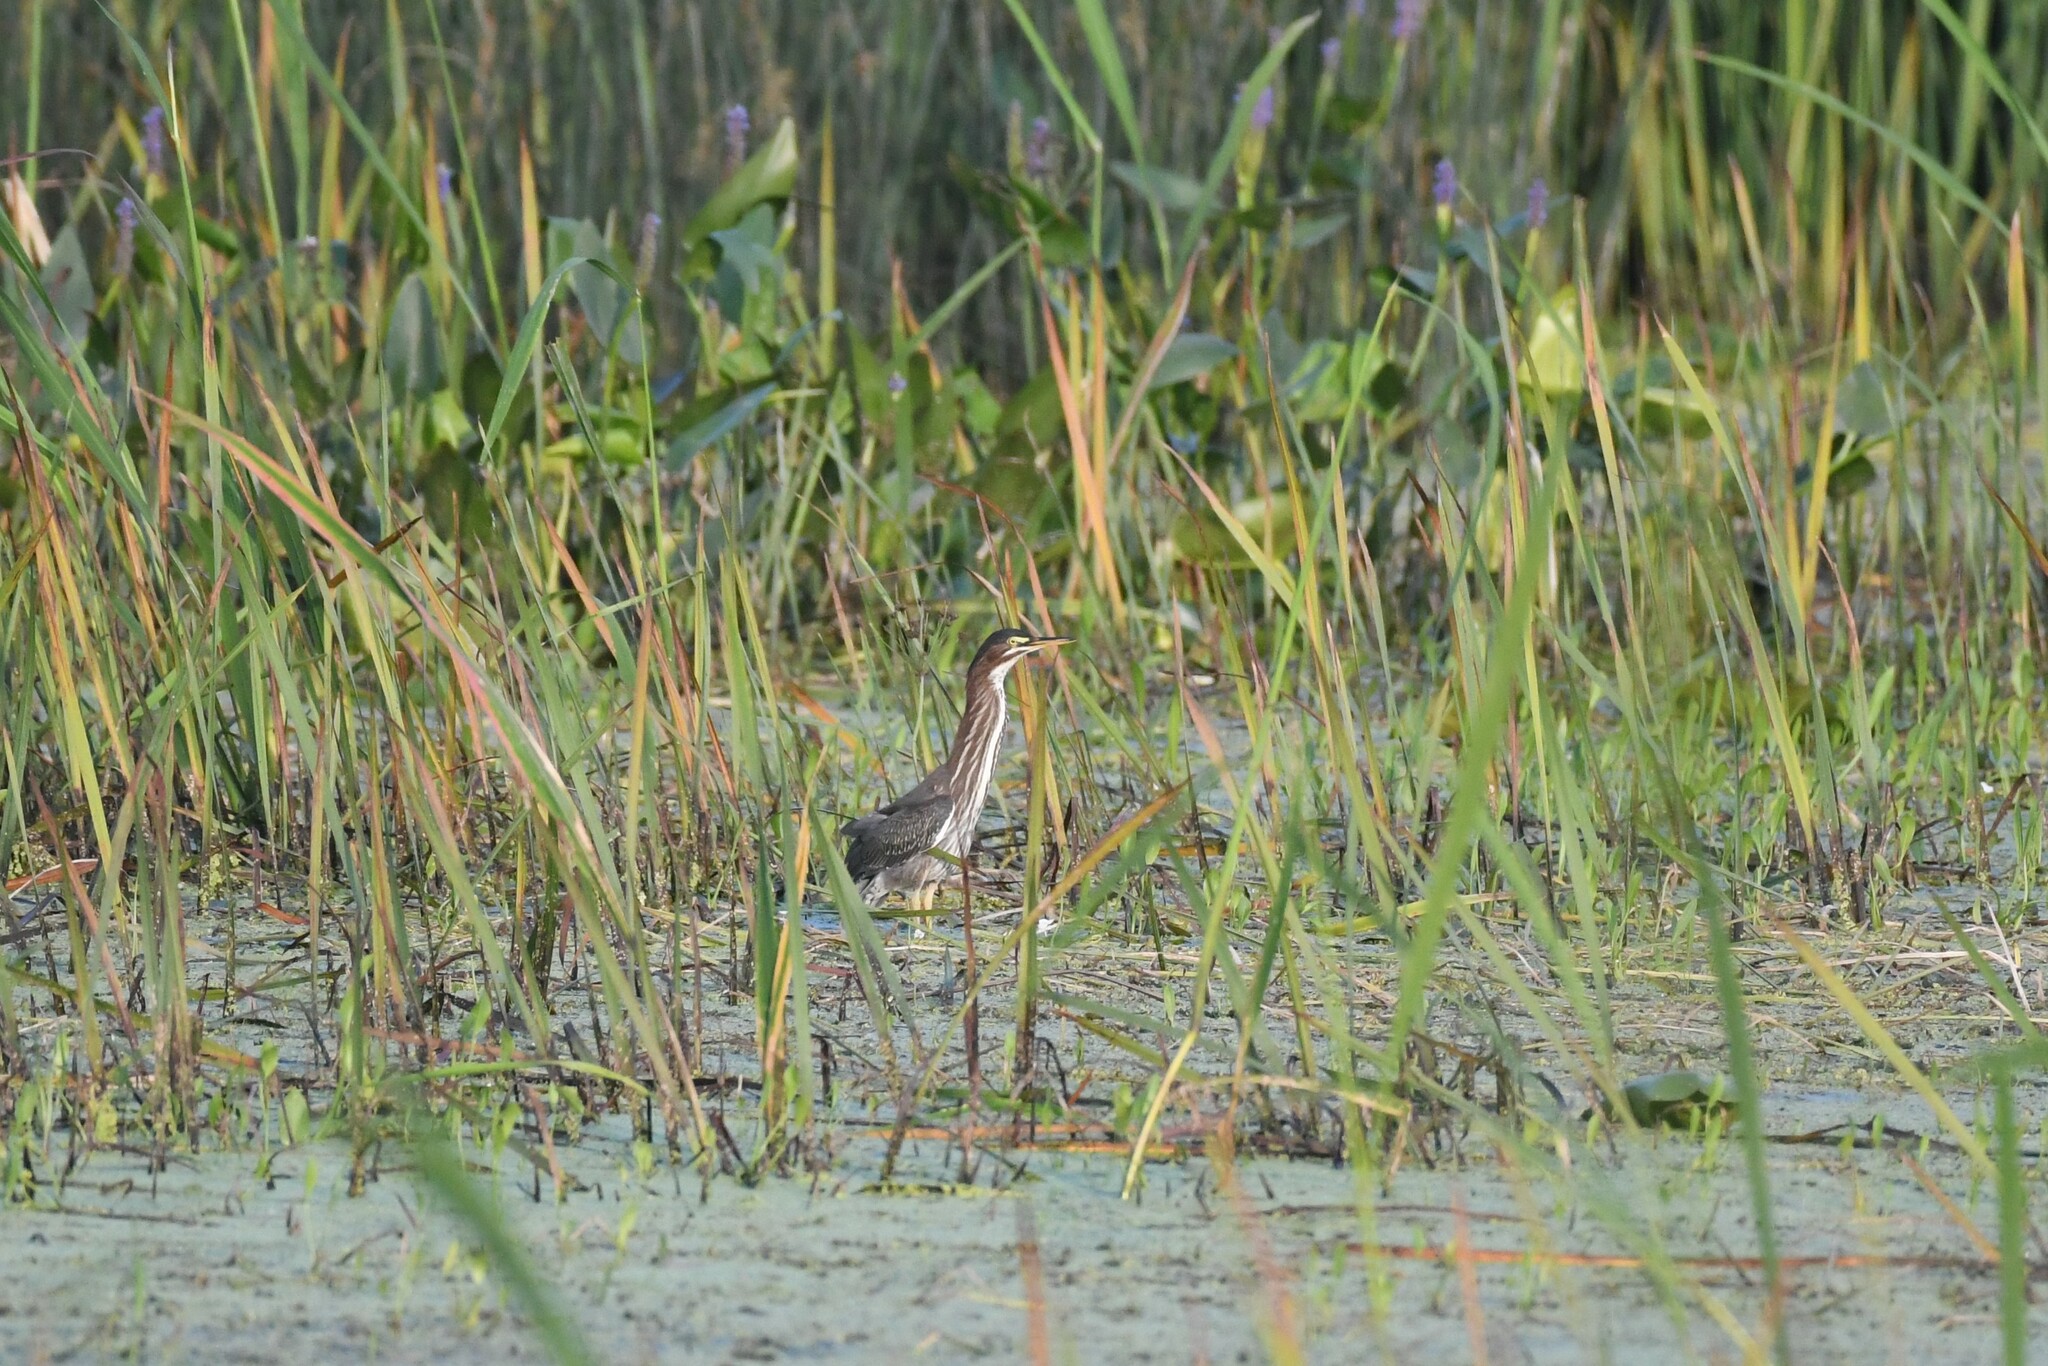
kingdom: Animalia
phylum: Chordata
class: Aves
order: Pelecaniformes
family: Ardeidae
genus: Butorides
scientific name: Butorides virescens
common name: Green heron
